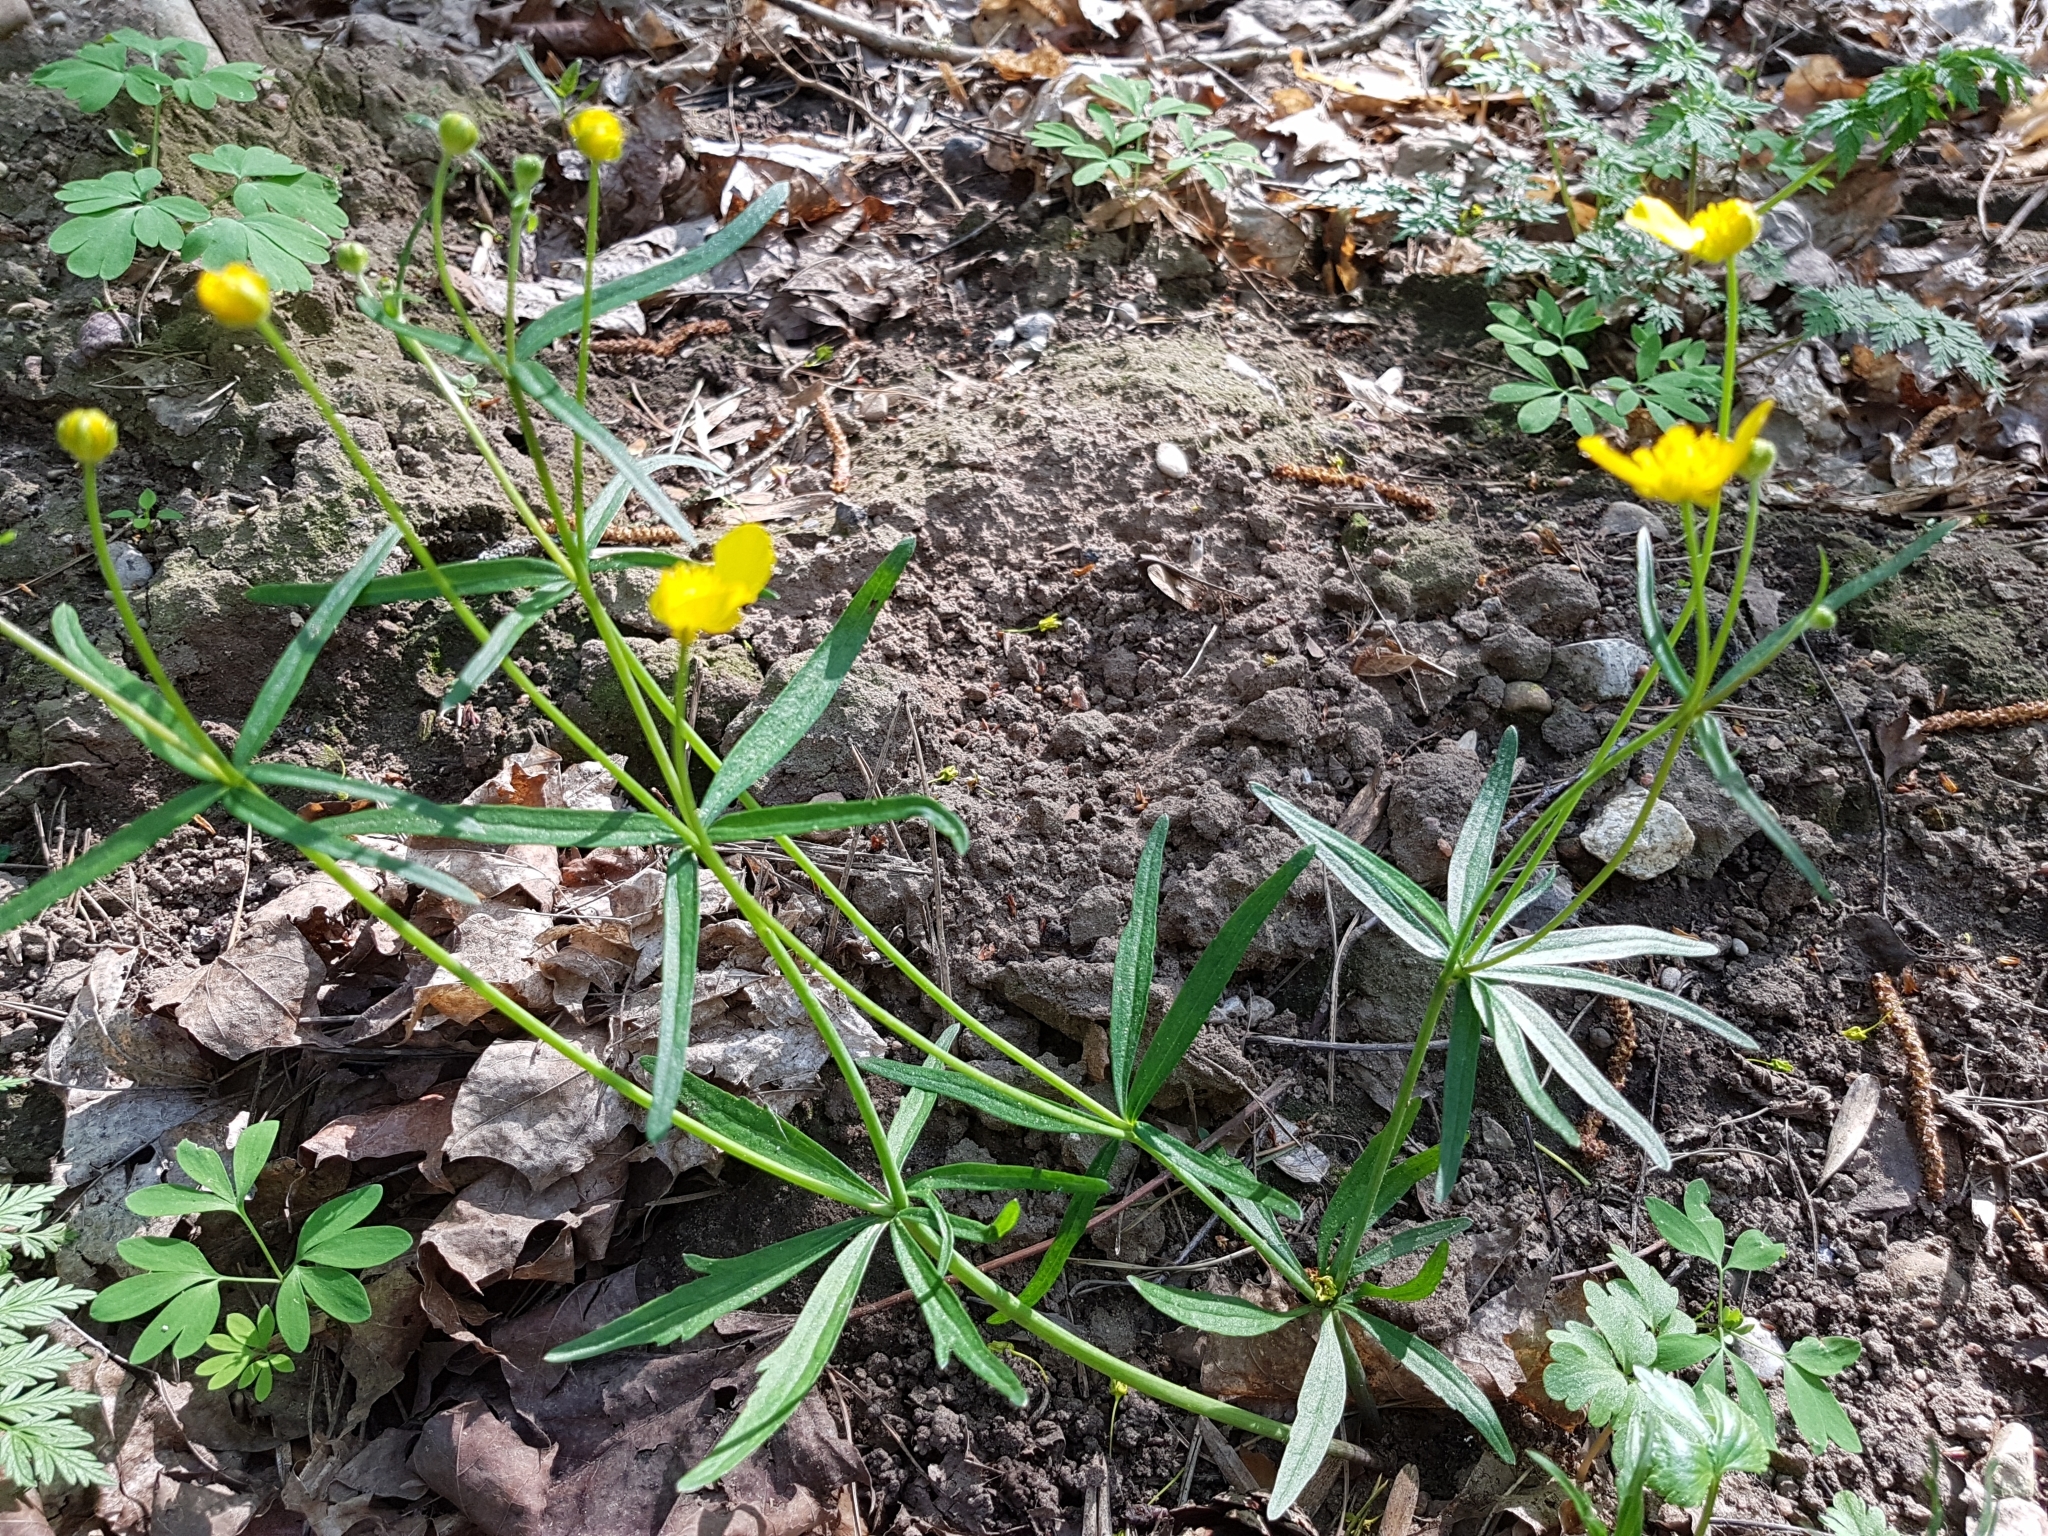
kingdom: Plantae
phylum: Tracheophyta
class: Magnoliopsida
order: Ranunculales
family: Ranunculaceae
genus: Ranunculus
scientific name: Ranunculus auricomus
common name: Goldilocks buttercup
